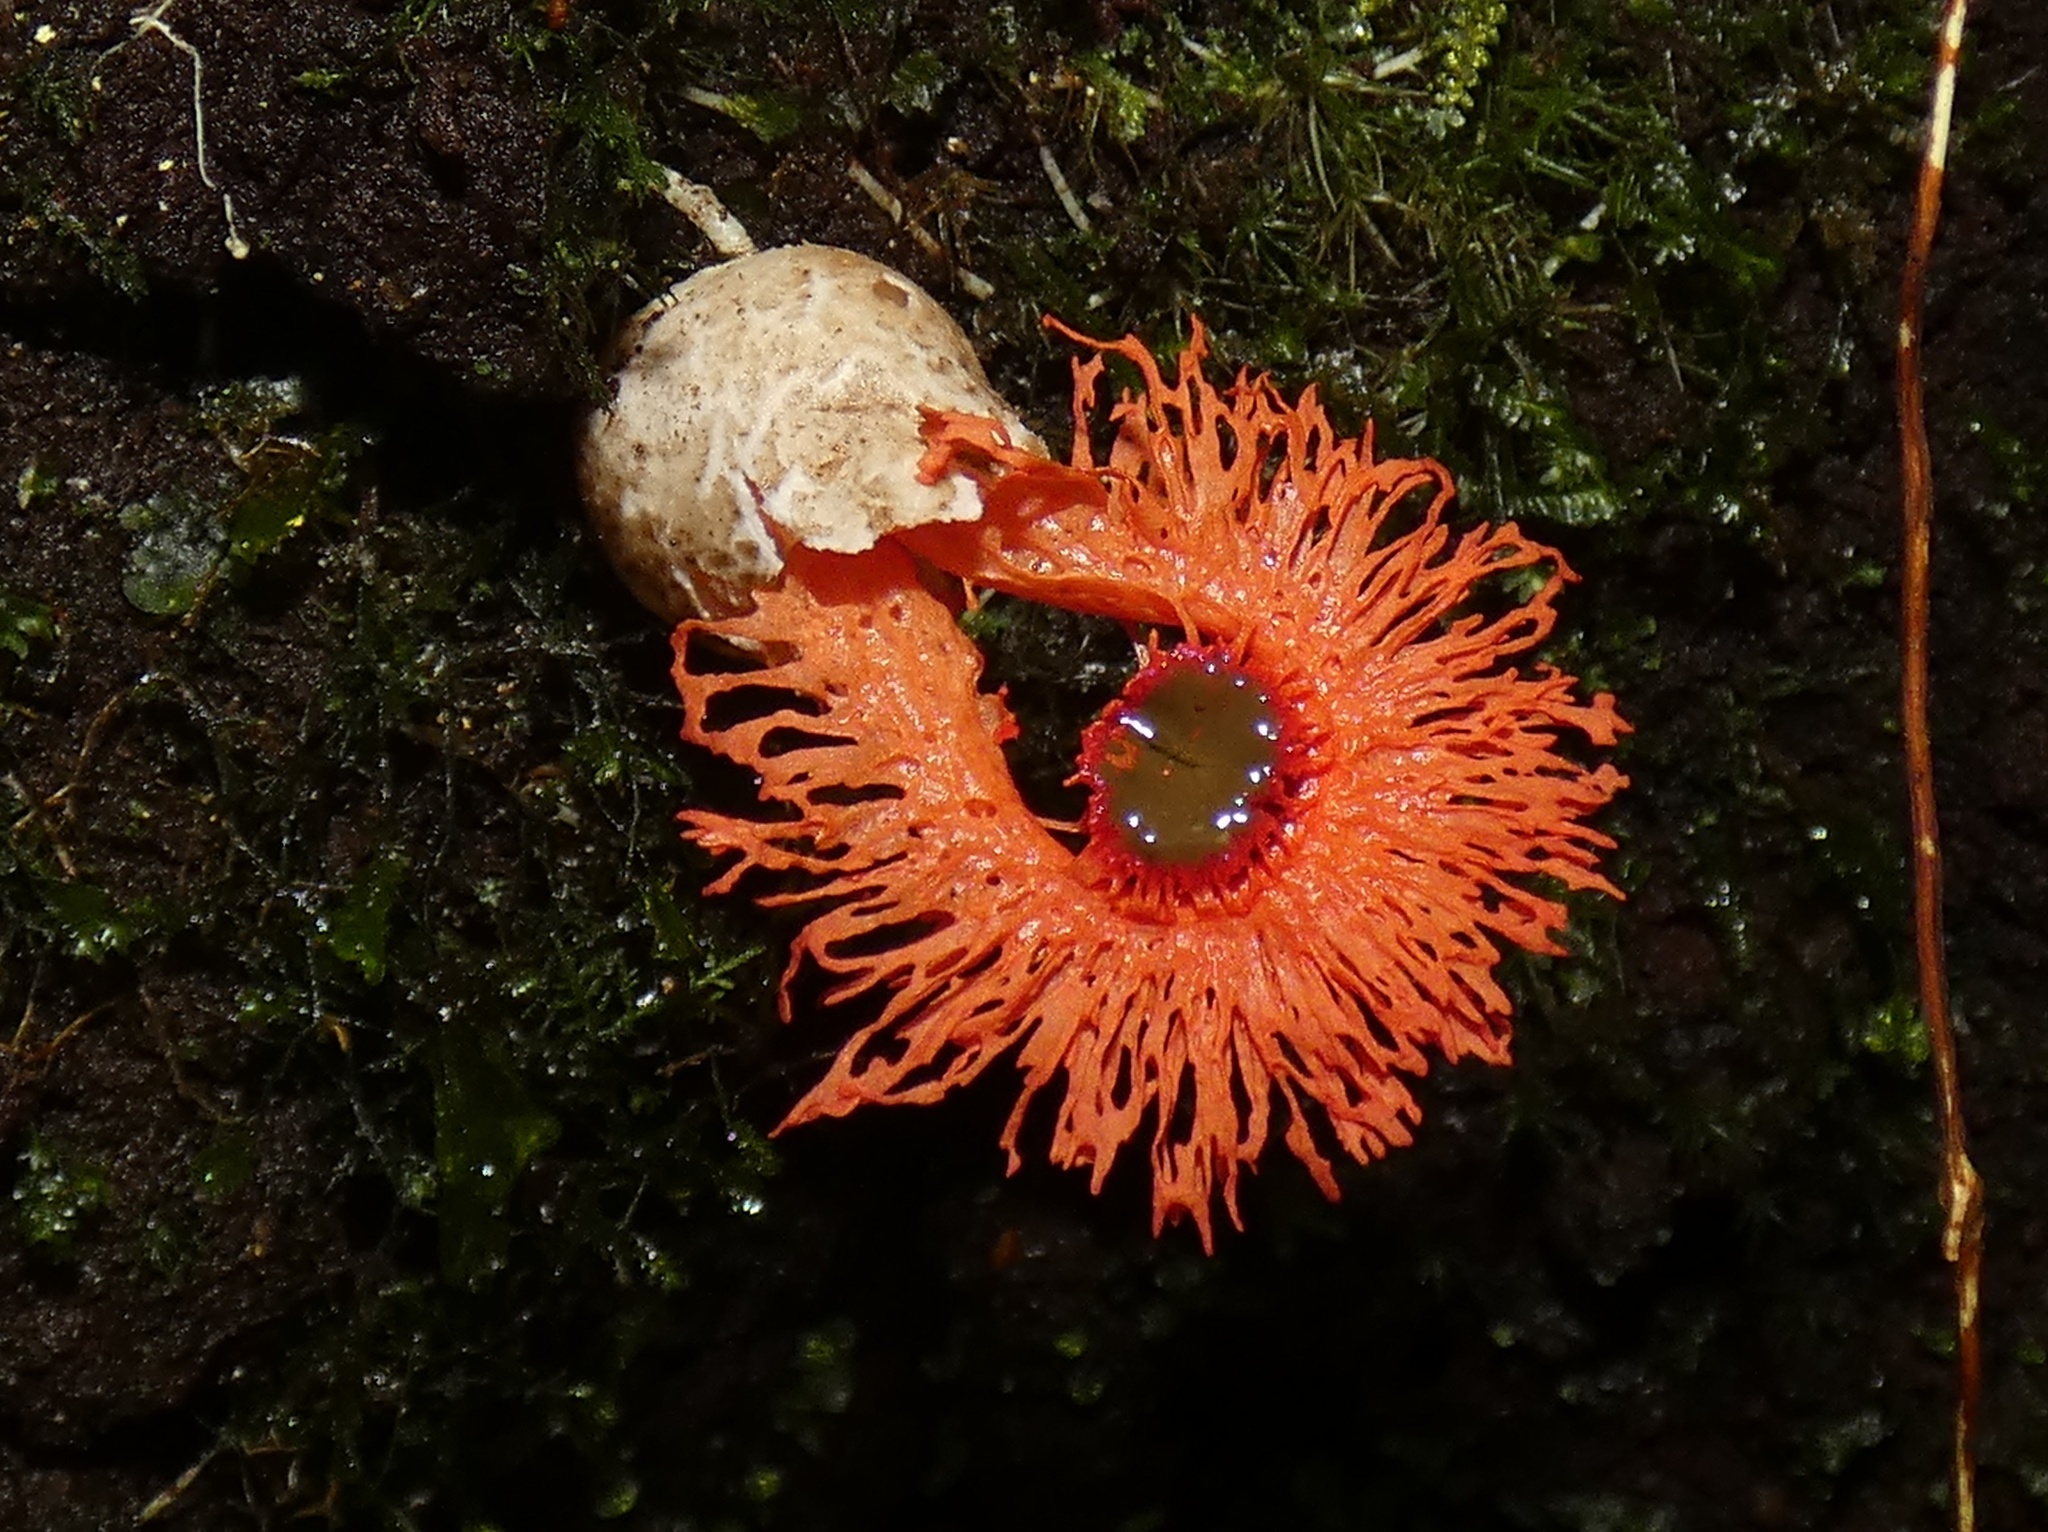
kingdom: Fungi
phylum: Basidiomycota
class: Agaricomycetes
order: Phallales
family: Phallaceae
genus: Laternea
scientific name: Laternea pusilla
